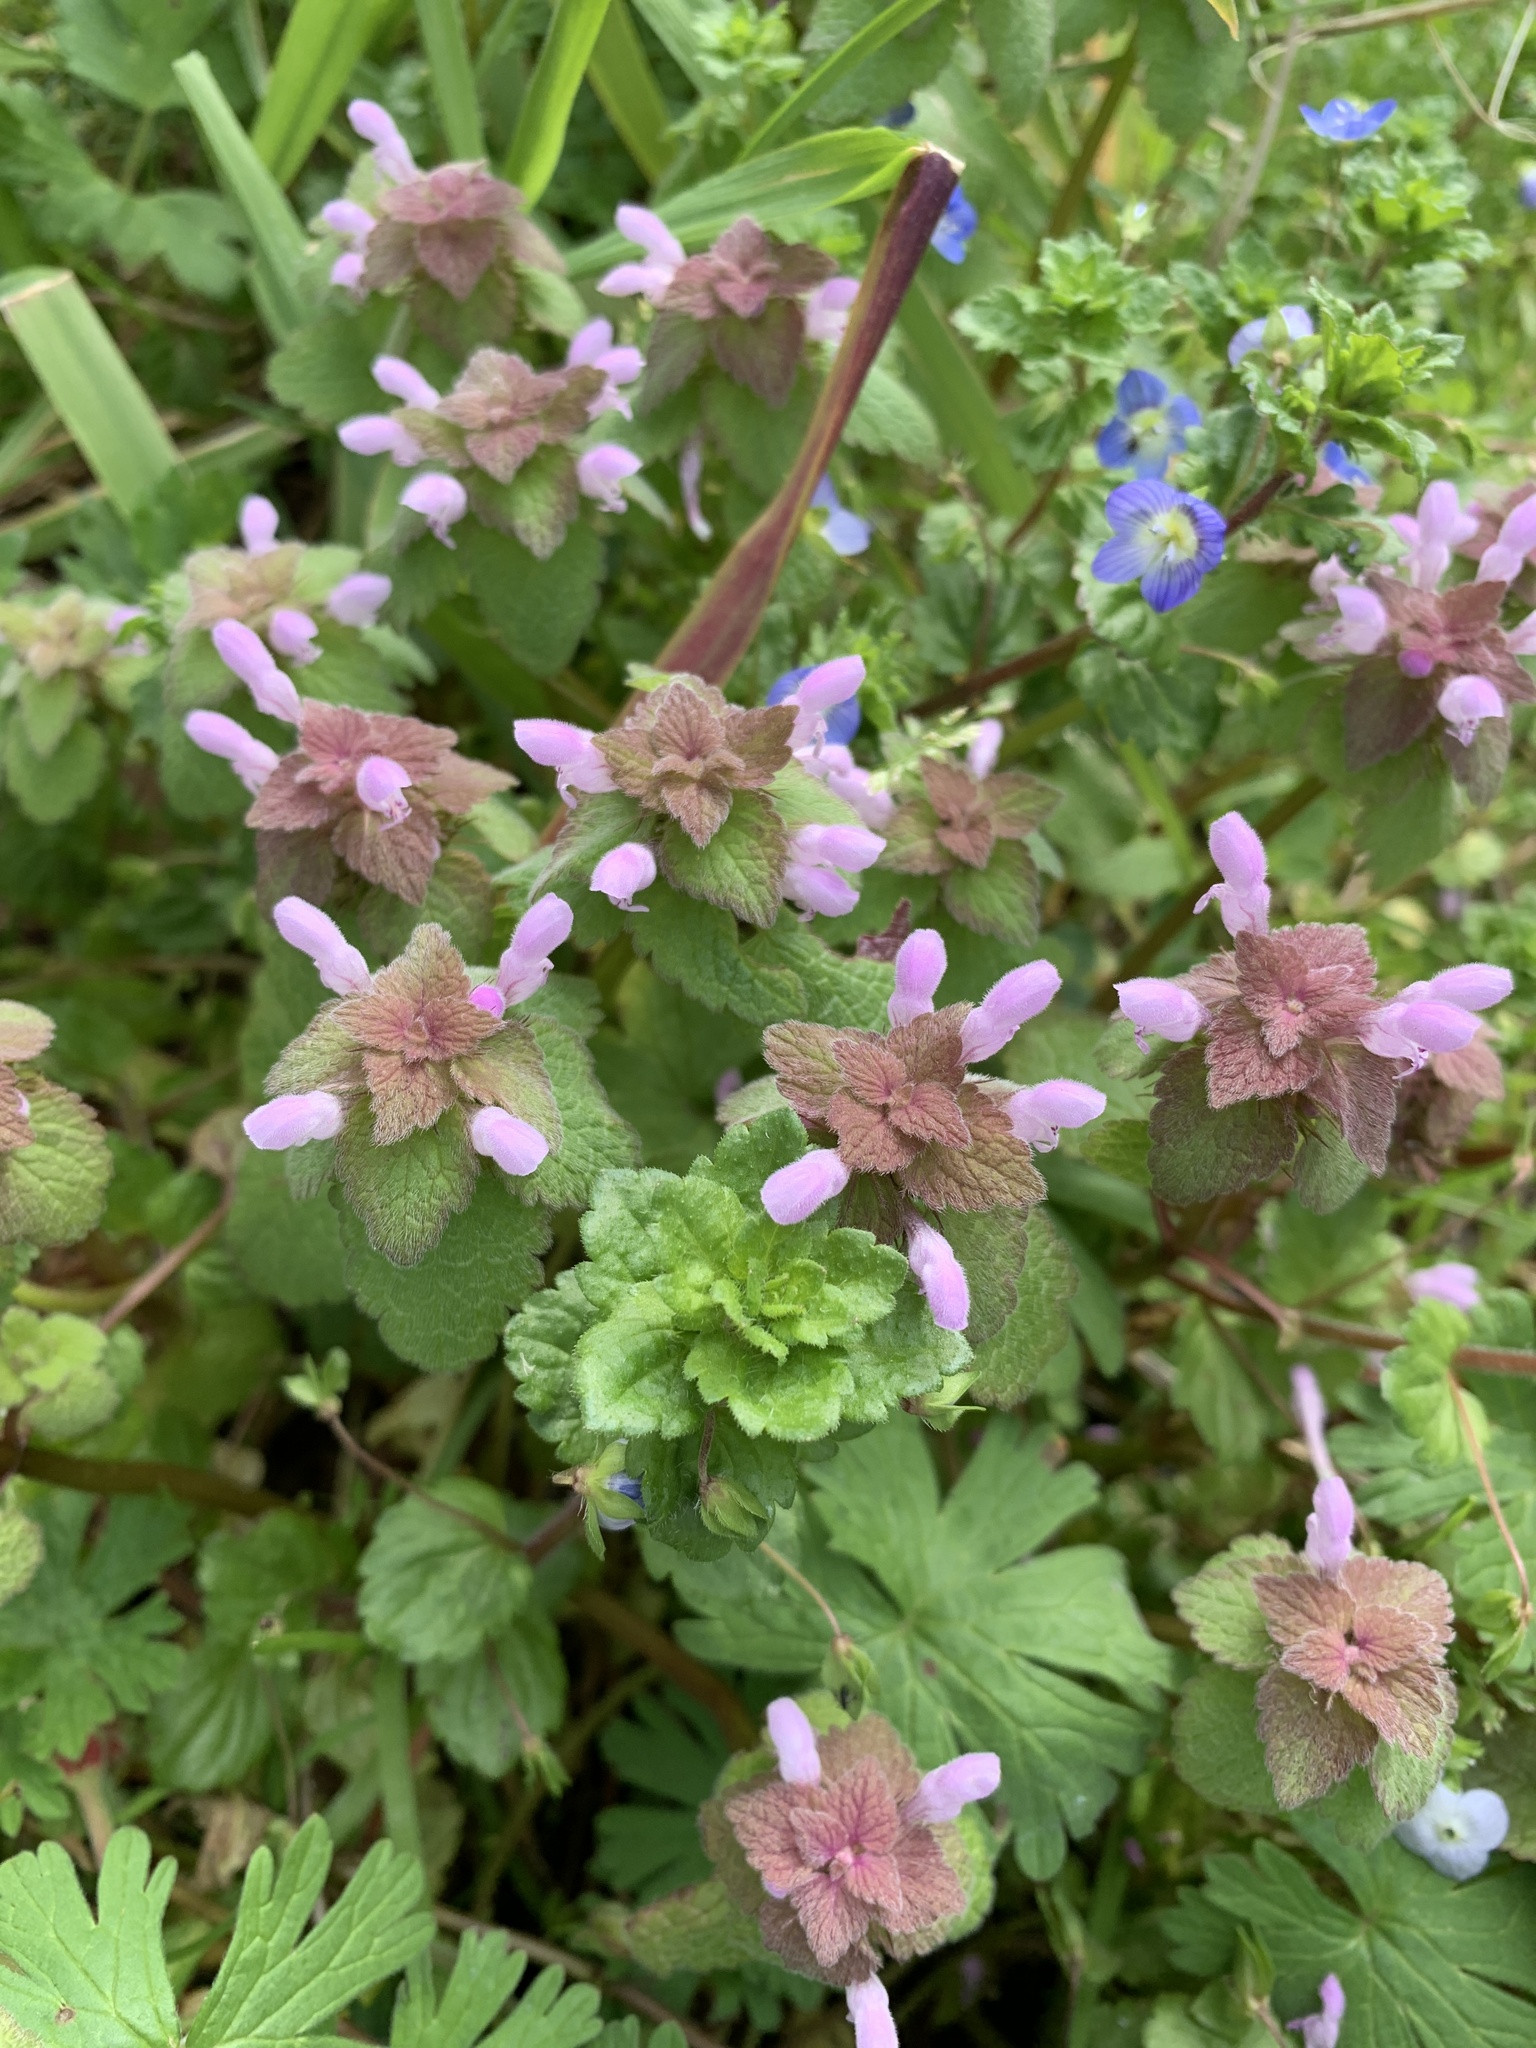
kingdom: Plantae
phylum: Tracheophyta
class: Magnoliopsida
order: Lamiales
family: Lamiaceae
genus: Lamium
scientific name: Lamium purpureum
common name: Red dead-nettle
